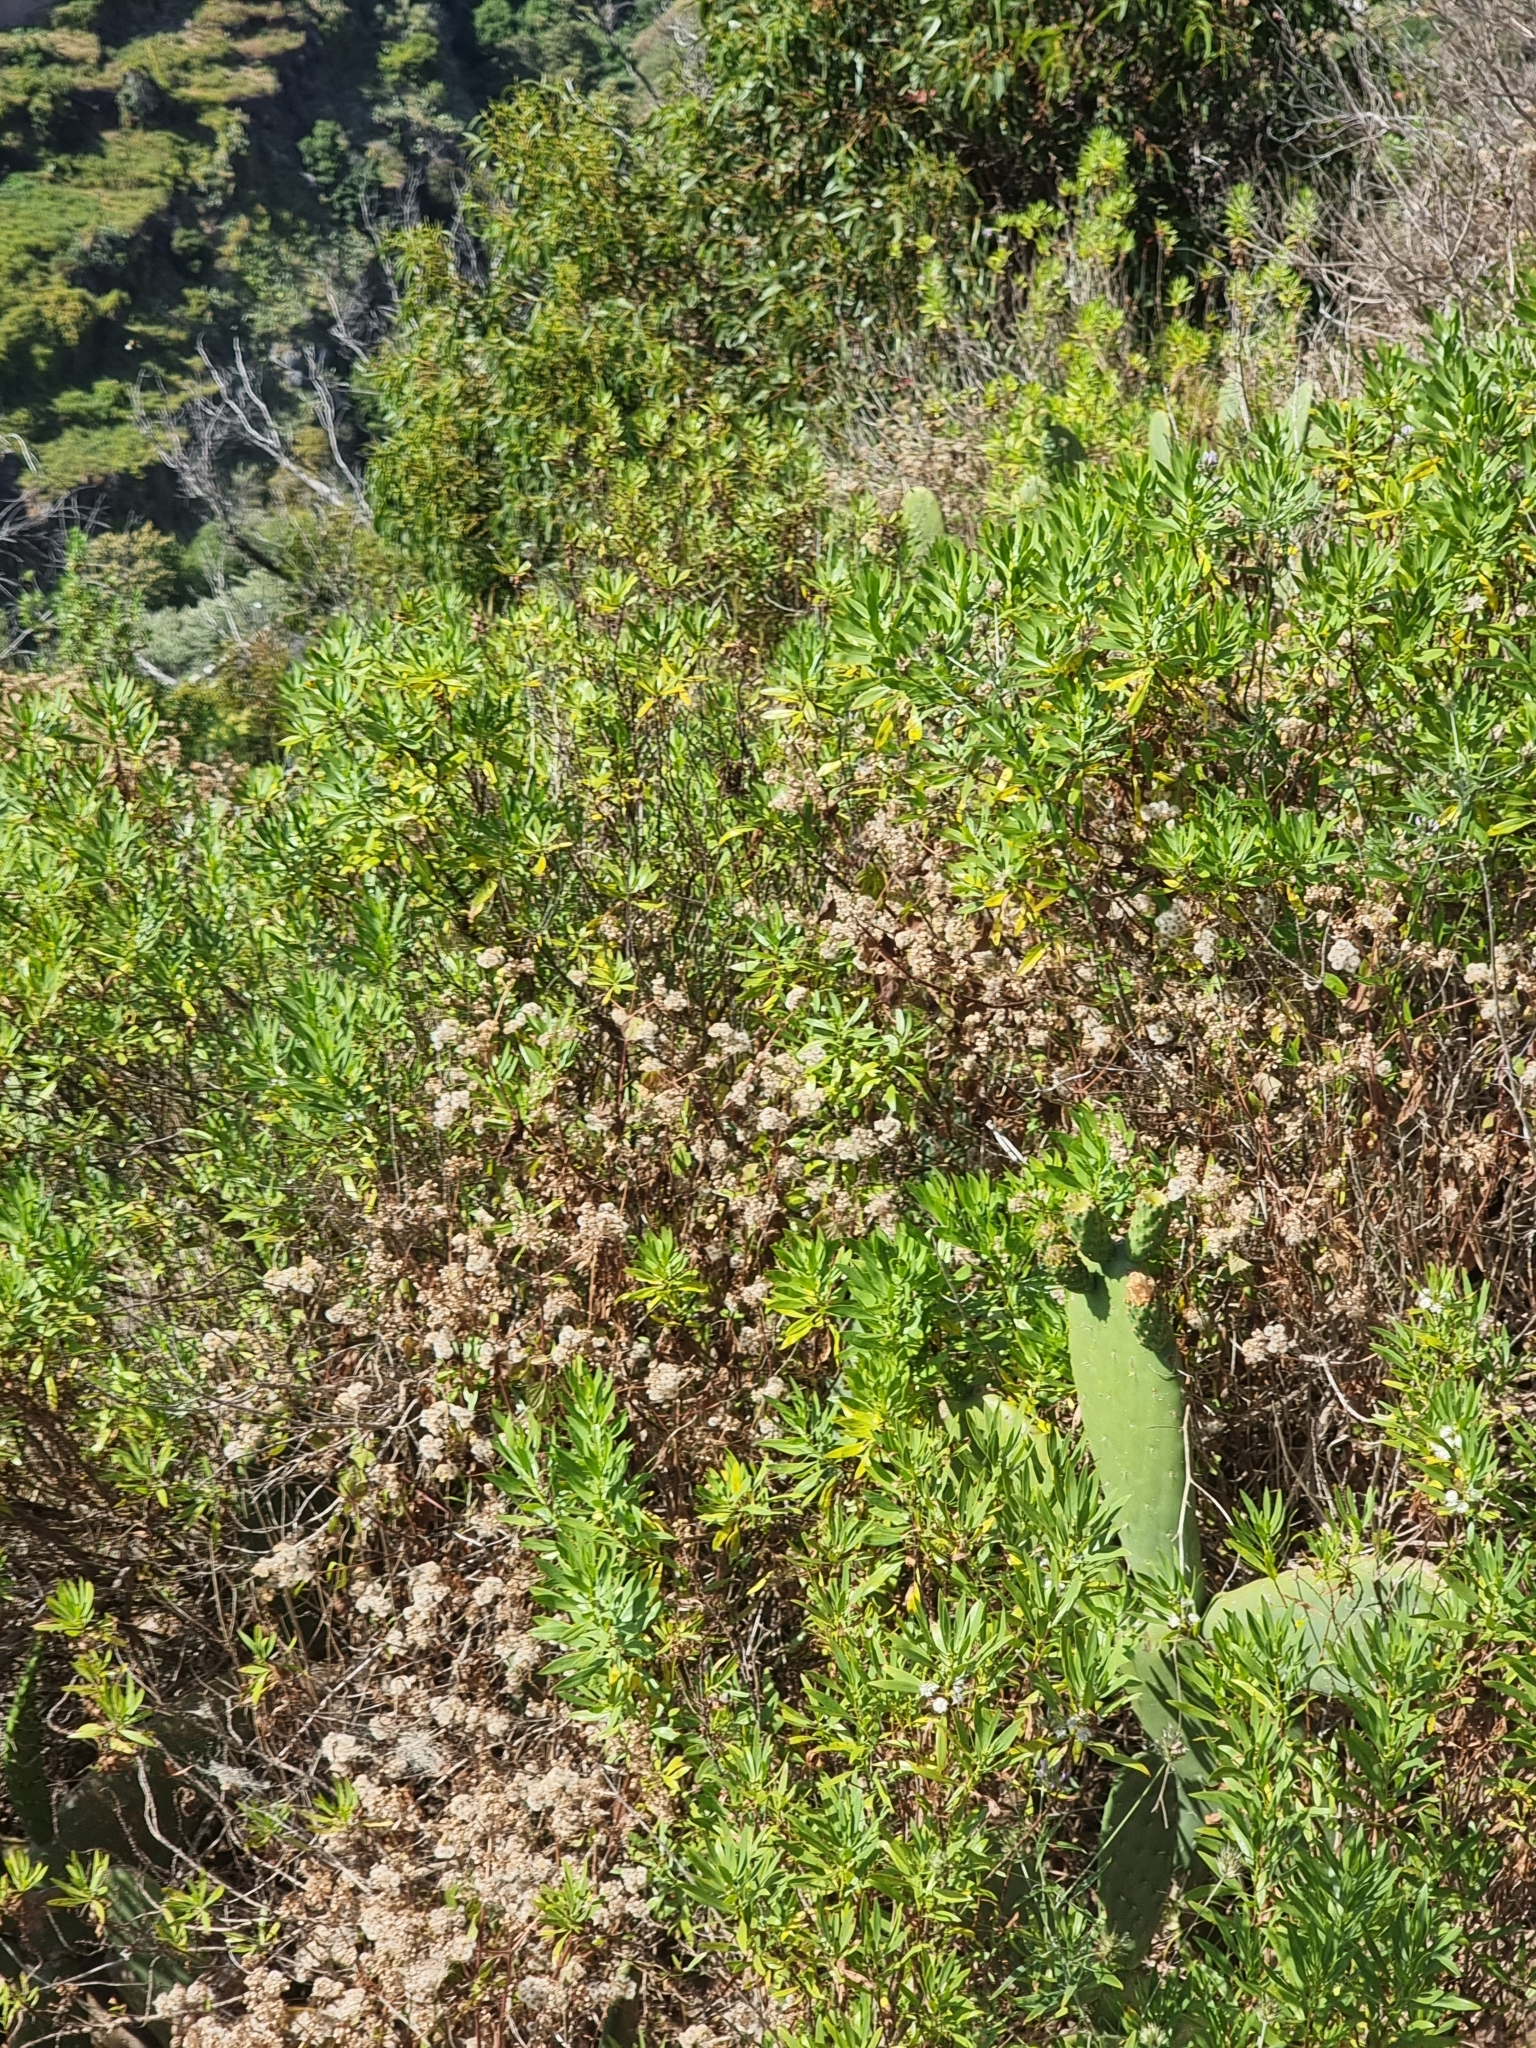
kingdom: Plantae
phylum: Tracheophyta
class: Magnoliopsida
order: Lamiales
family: Plantaginaceae
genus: Globularia
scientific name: Globularia salicina
